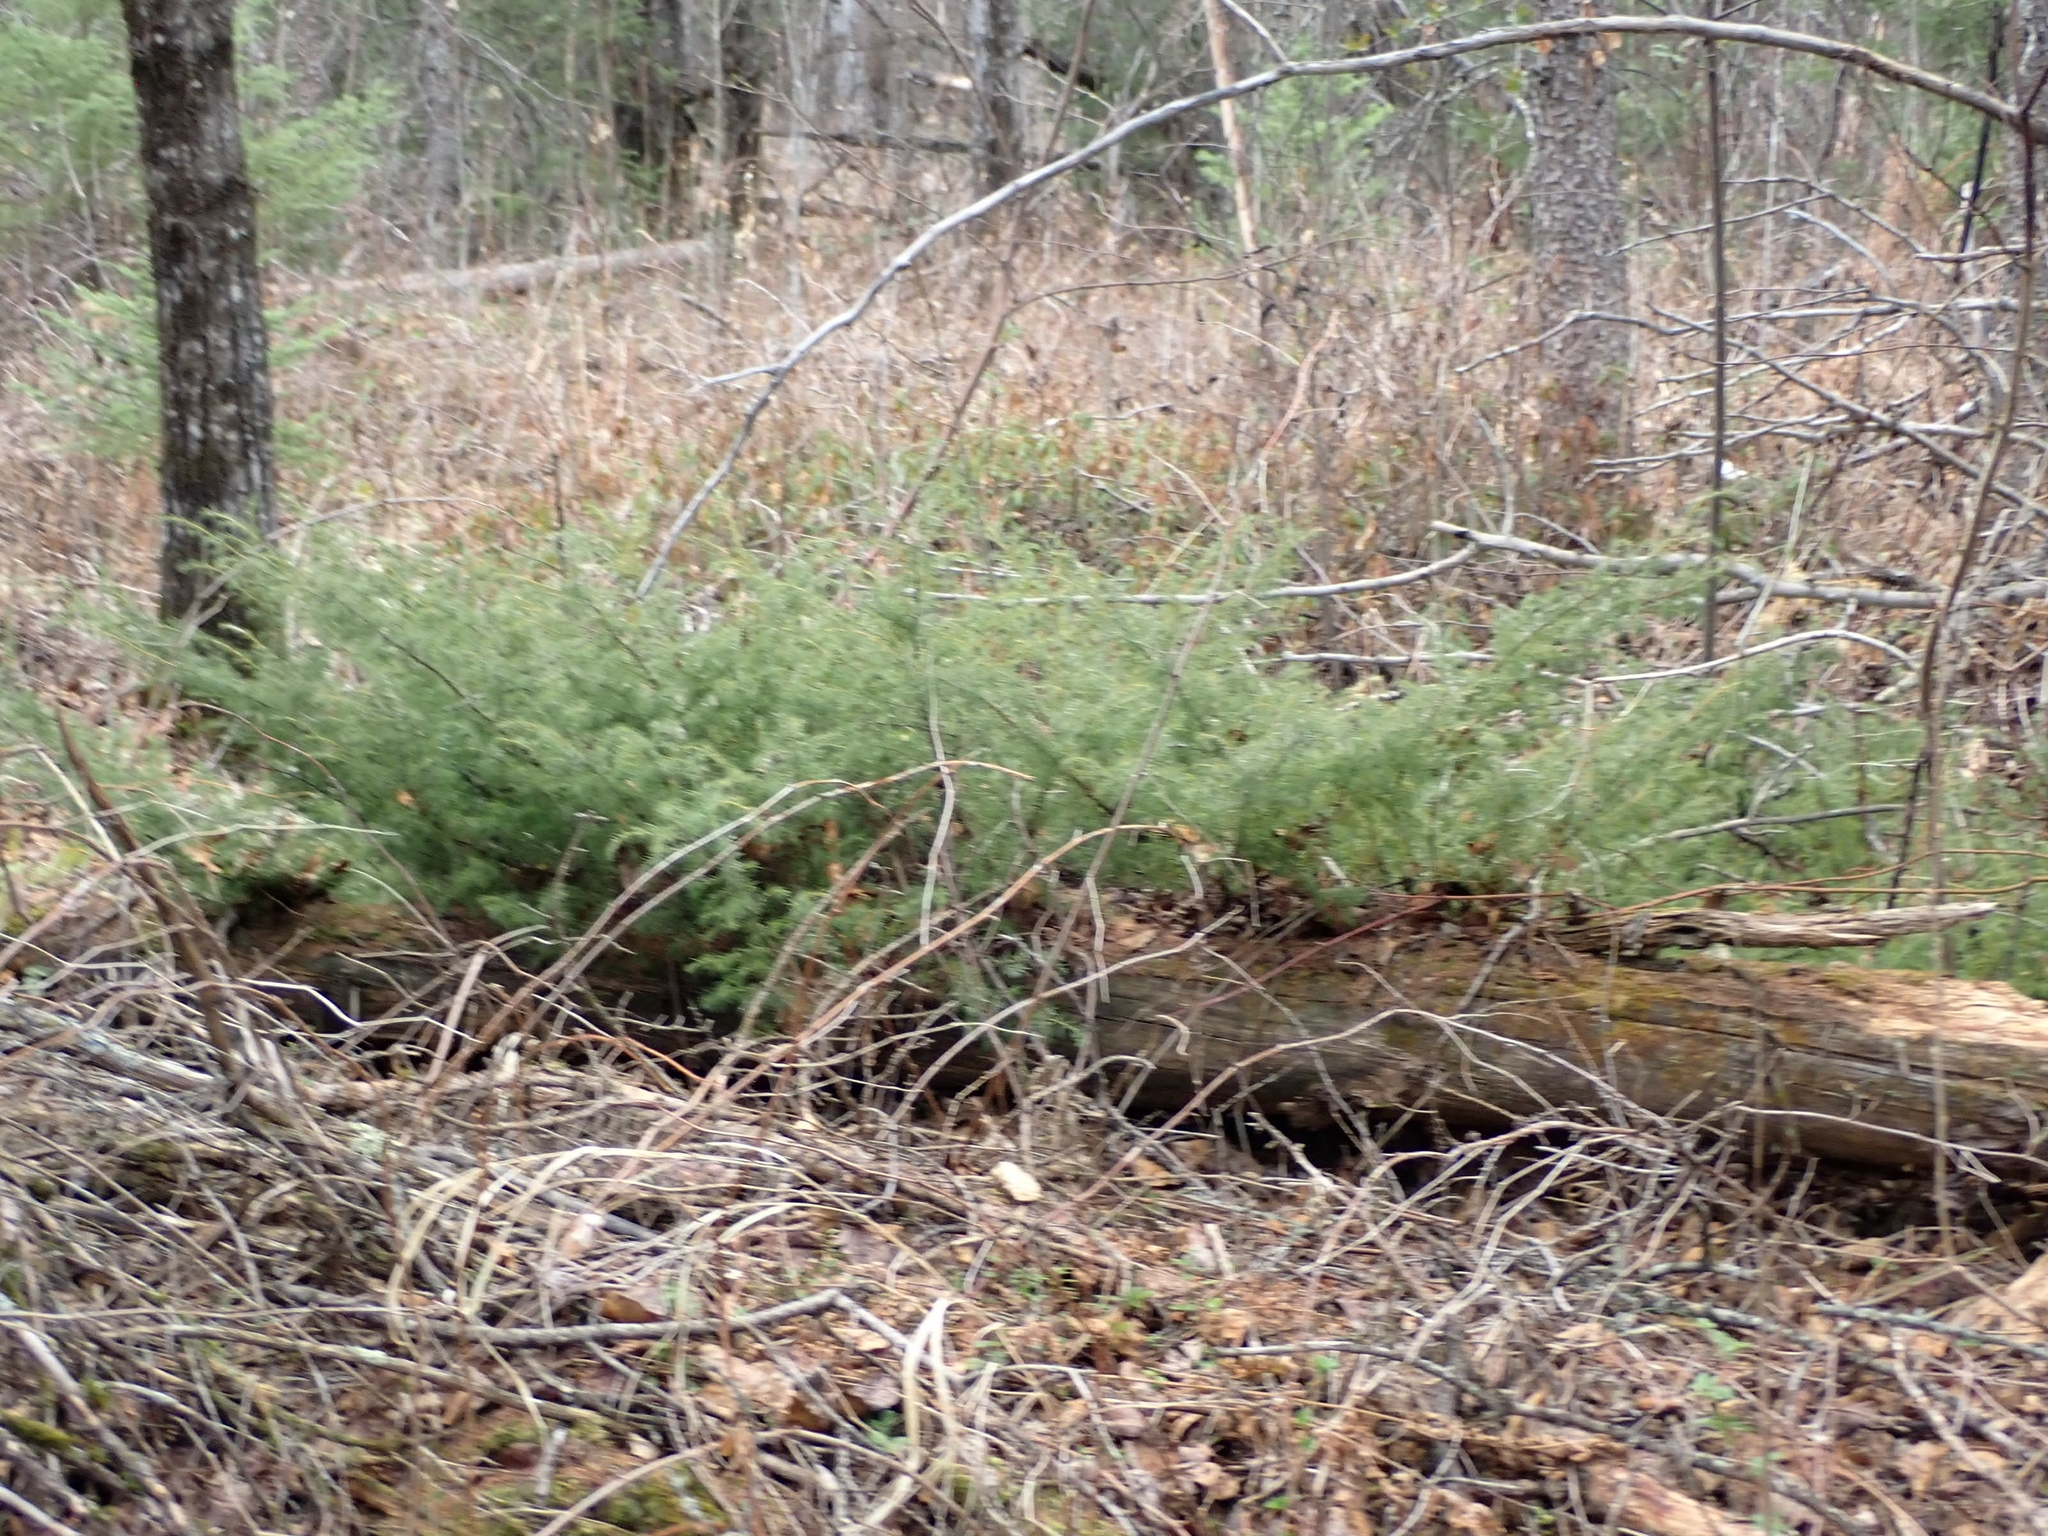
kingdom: Plantae
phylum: Tracheophyta
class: Pinopsida
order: Pinales
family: Cupressaceae
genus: Juniperus
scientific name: Juniperus communis
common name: Common juniper
